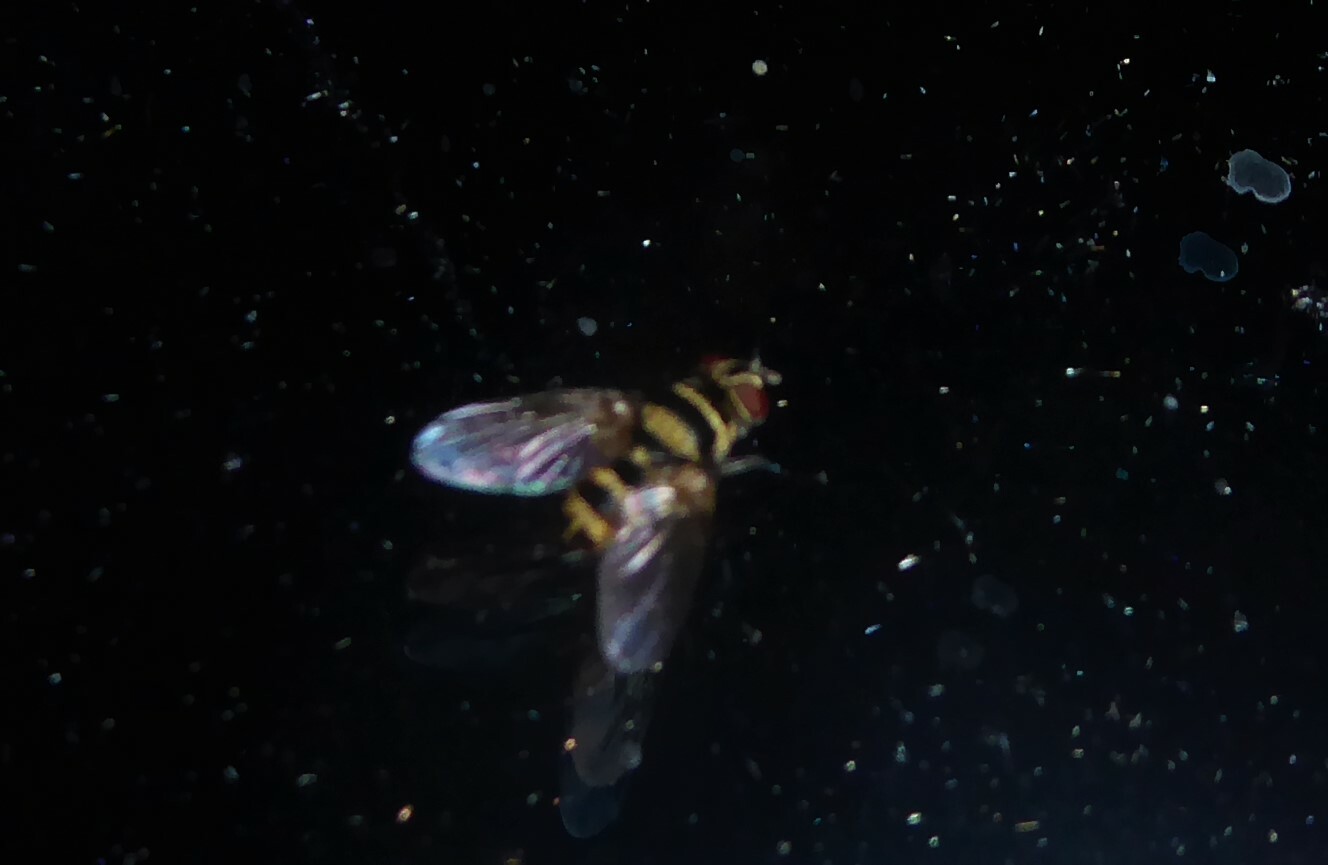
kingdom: Animalia
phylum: Arthropoda
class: Insecta
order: Diptera
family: Tachinidae
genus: Trigonospila
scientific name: Trigonospila brevifacies
